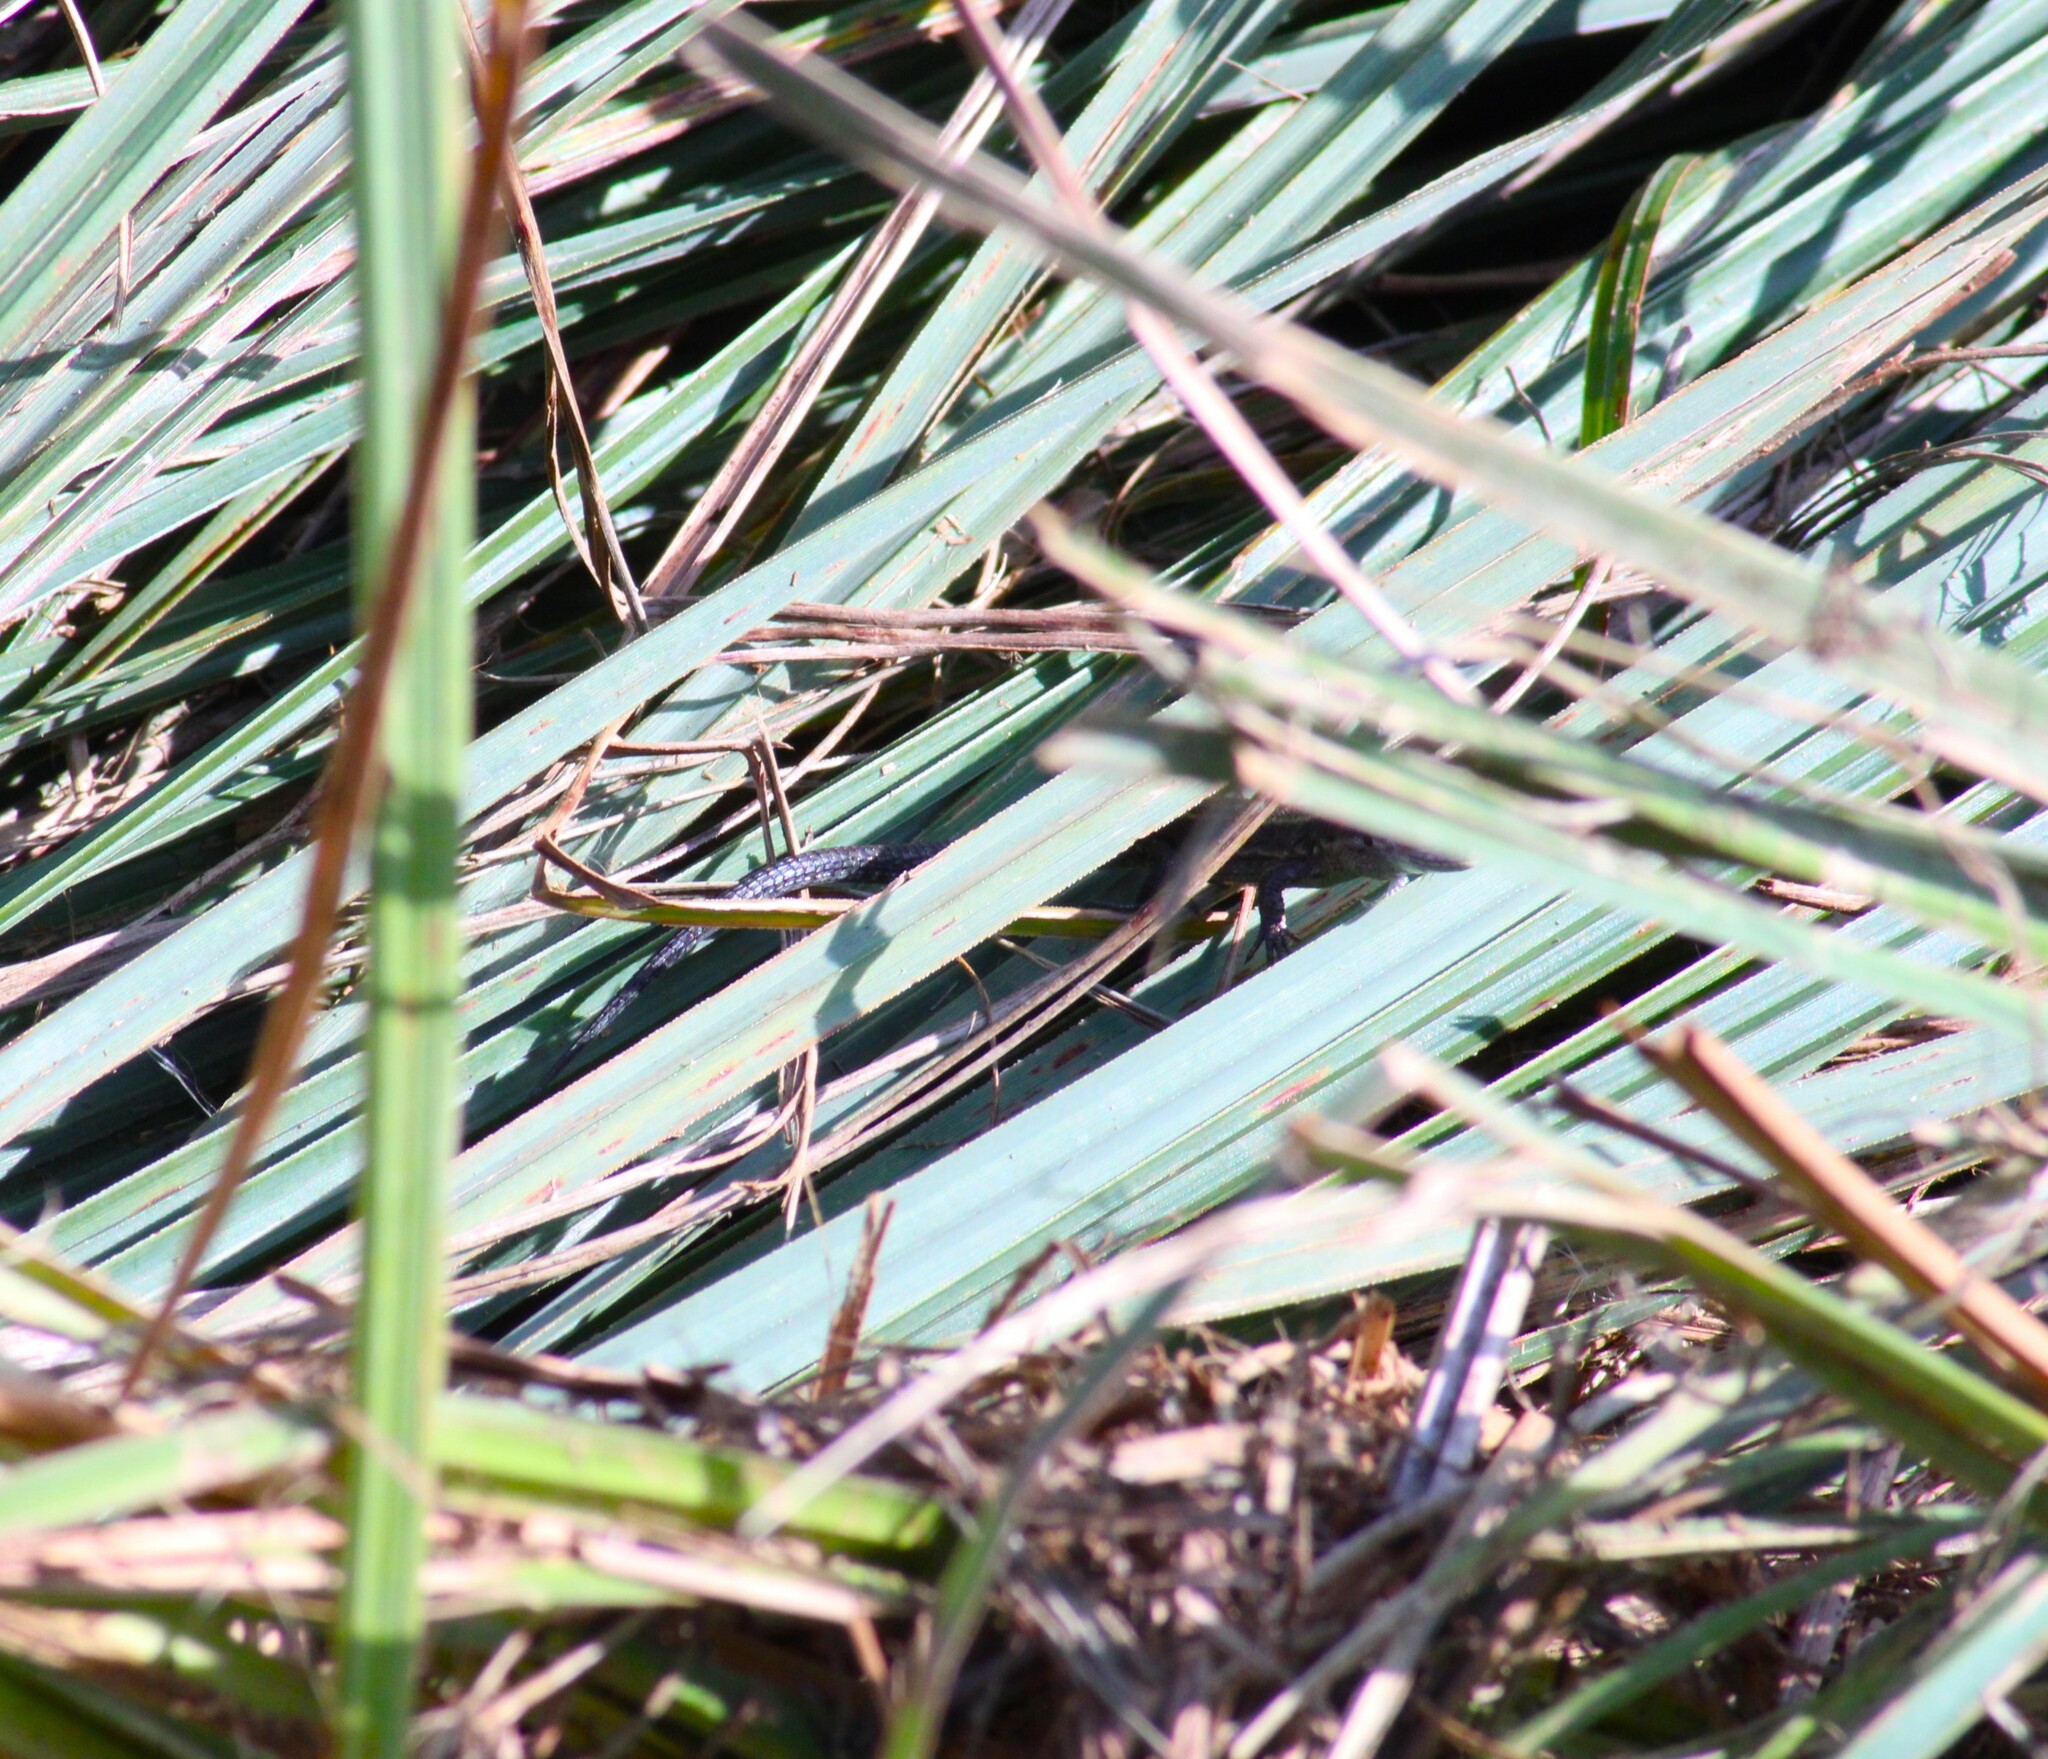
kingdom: Animalia
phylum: Chordata
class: Squamata
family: Lacertidae
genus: Zootoca
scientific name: Zootoca vivipara
